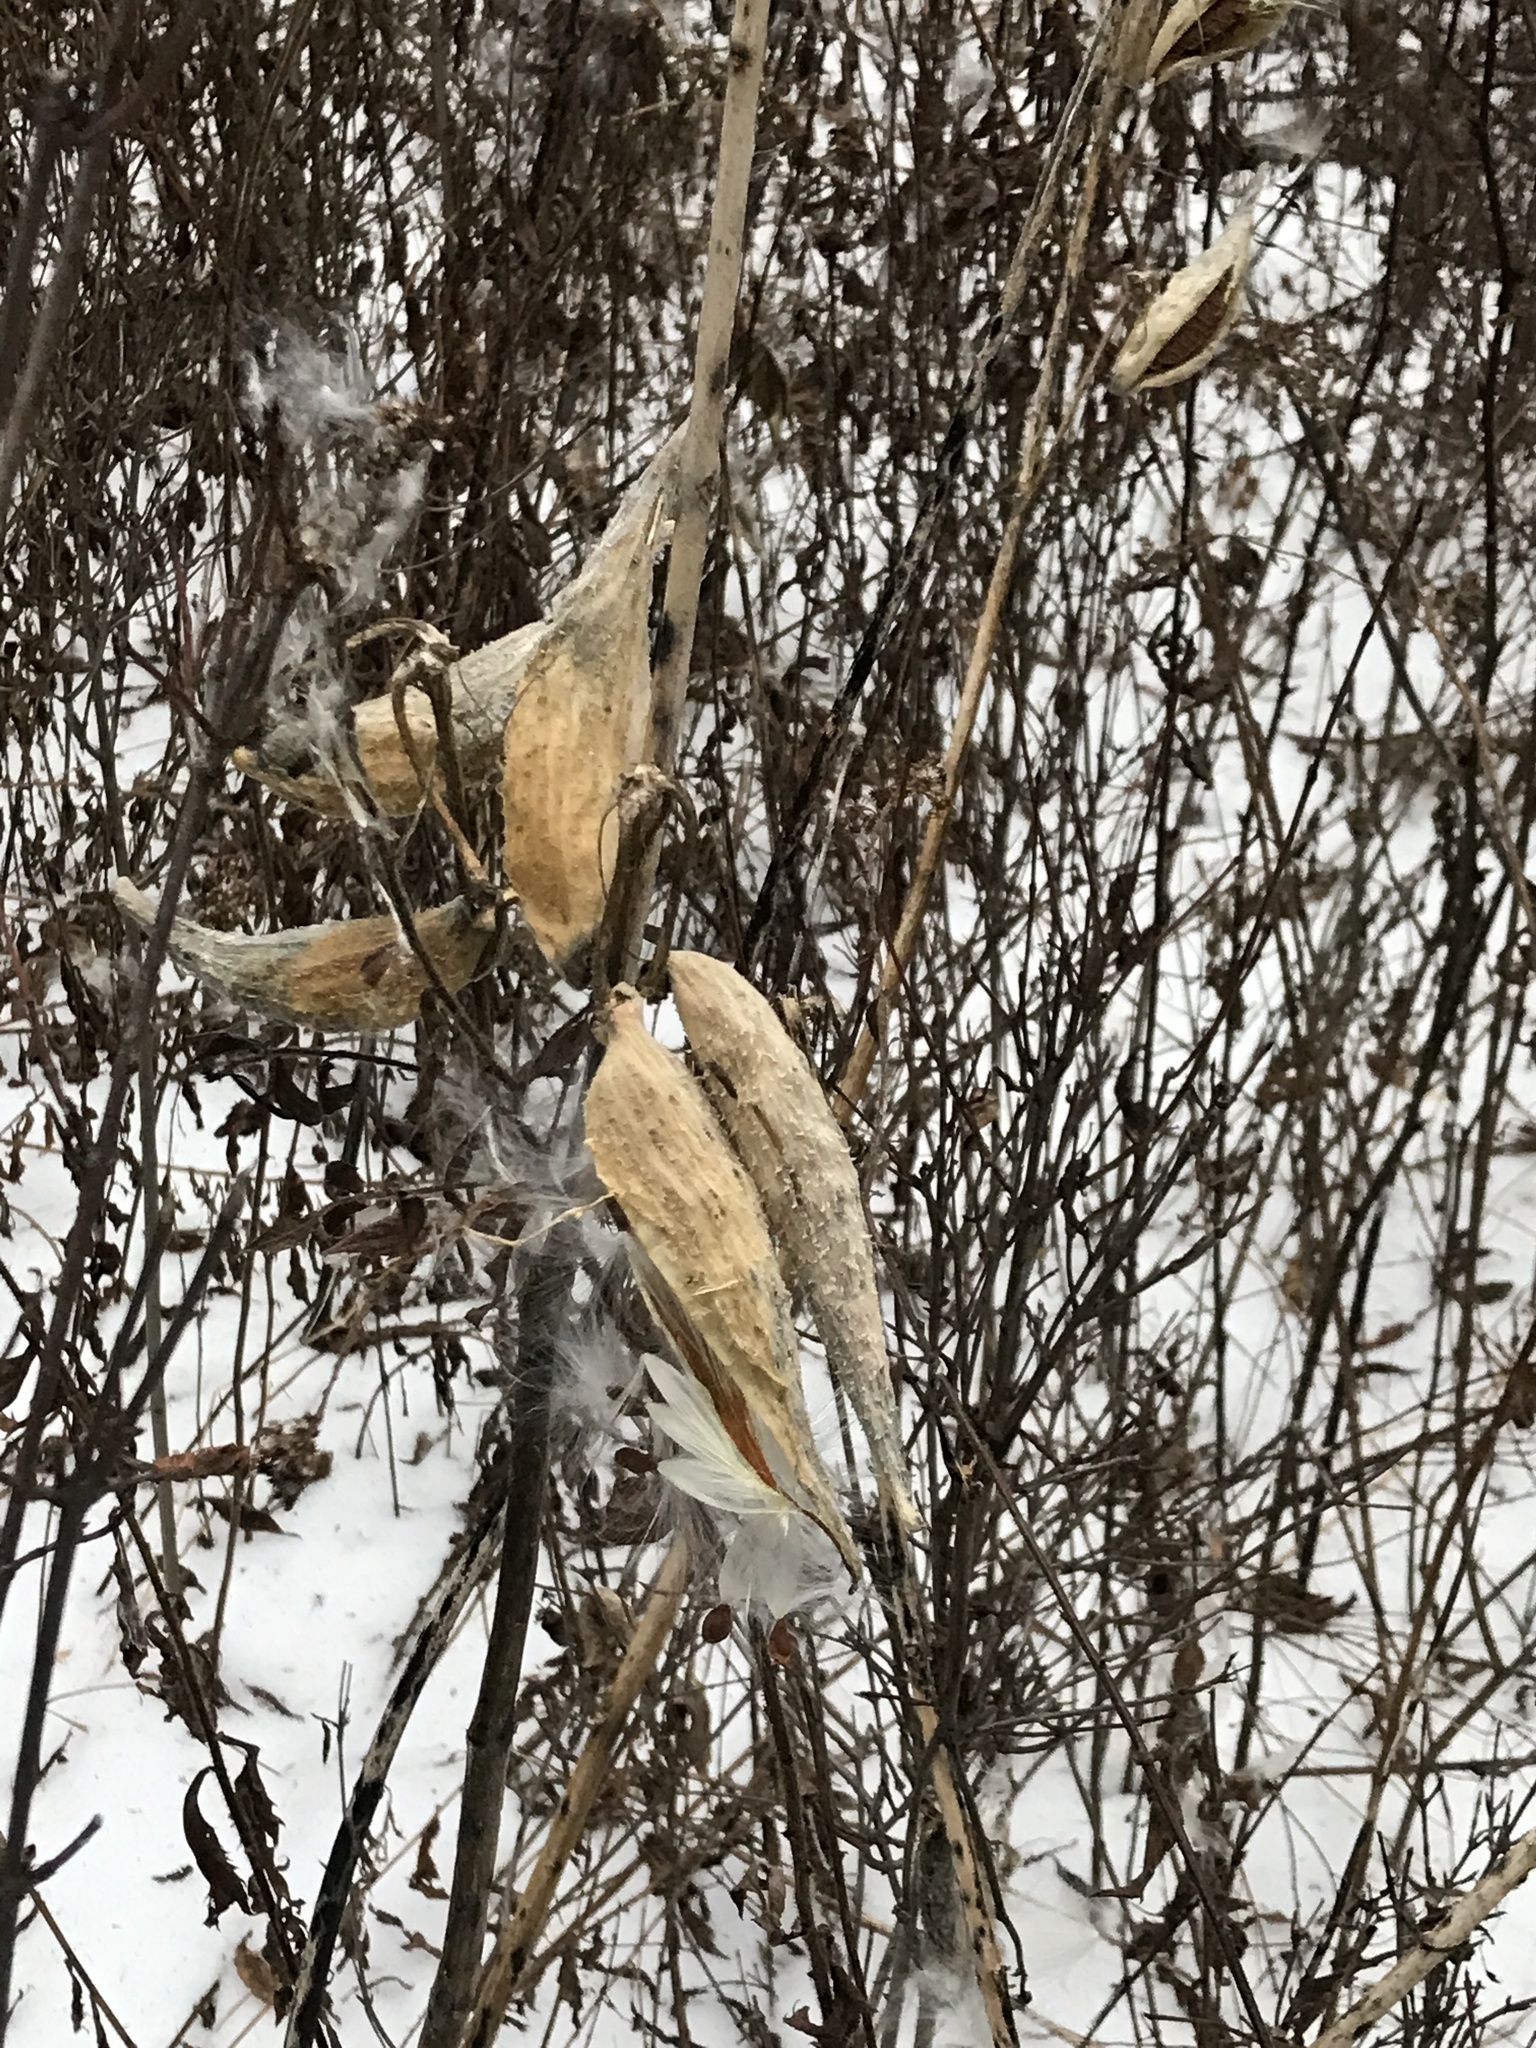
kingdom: Plantae
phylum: Tracheophyta
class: Magnoliopsida
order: Gentianales
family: Apocynaceae
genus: Asclepias
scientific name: Asclepias syriaca
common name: Common milkweed
